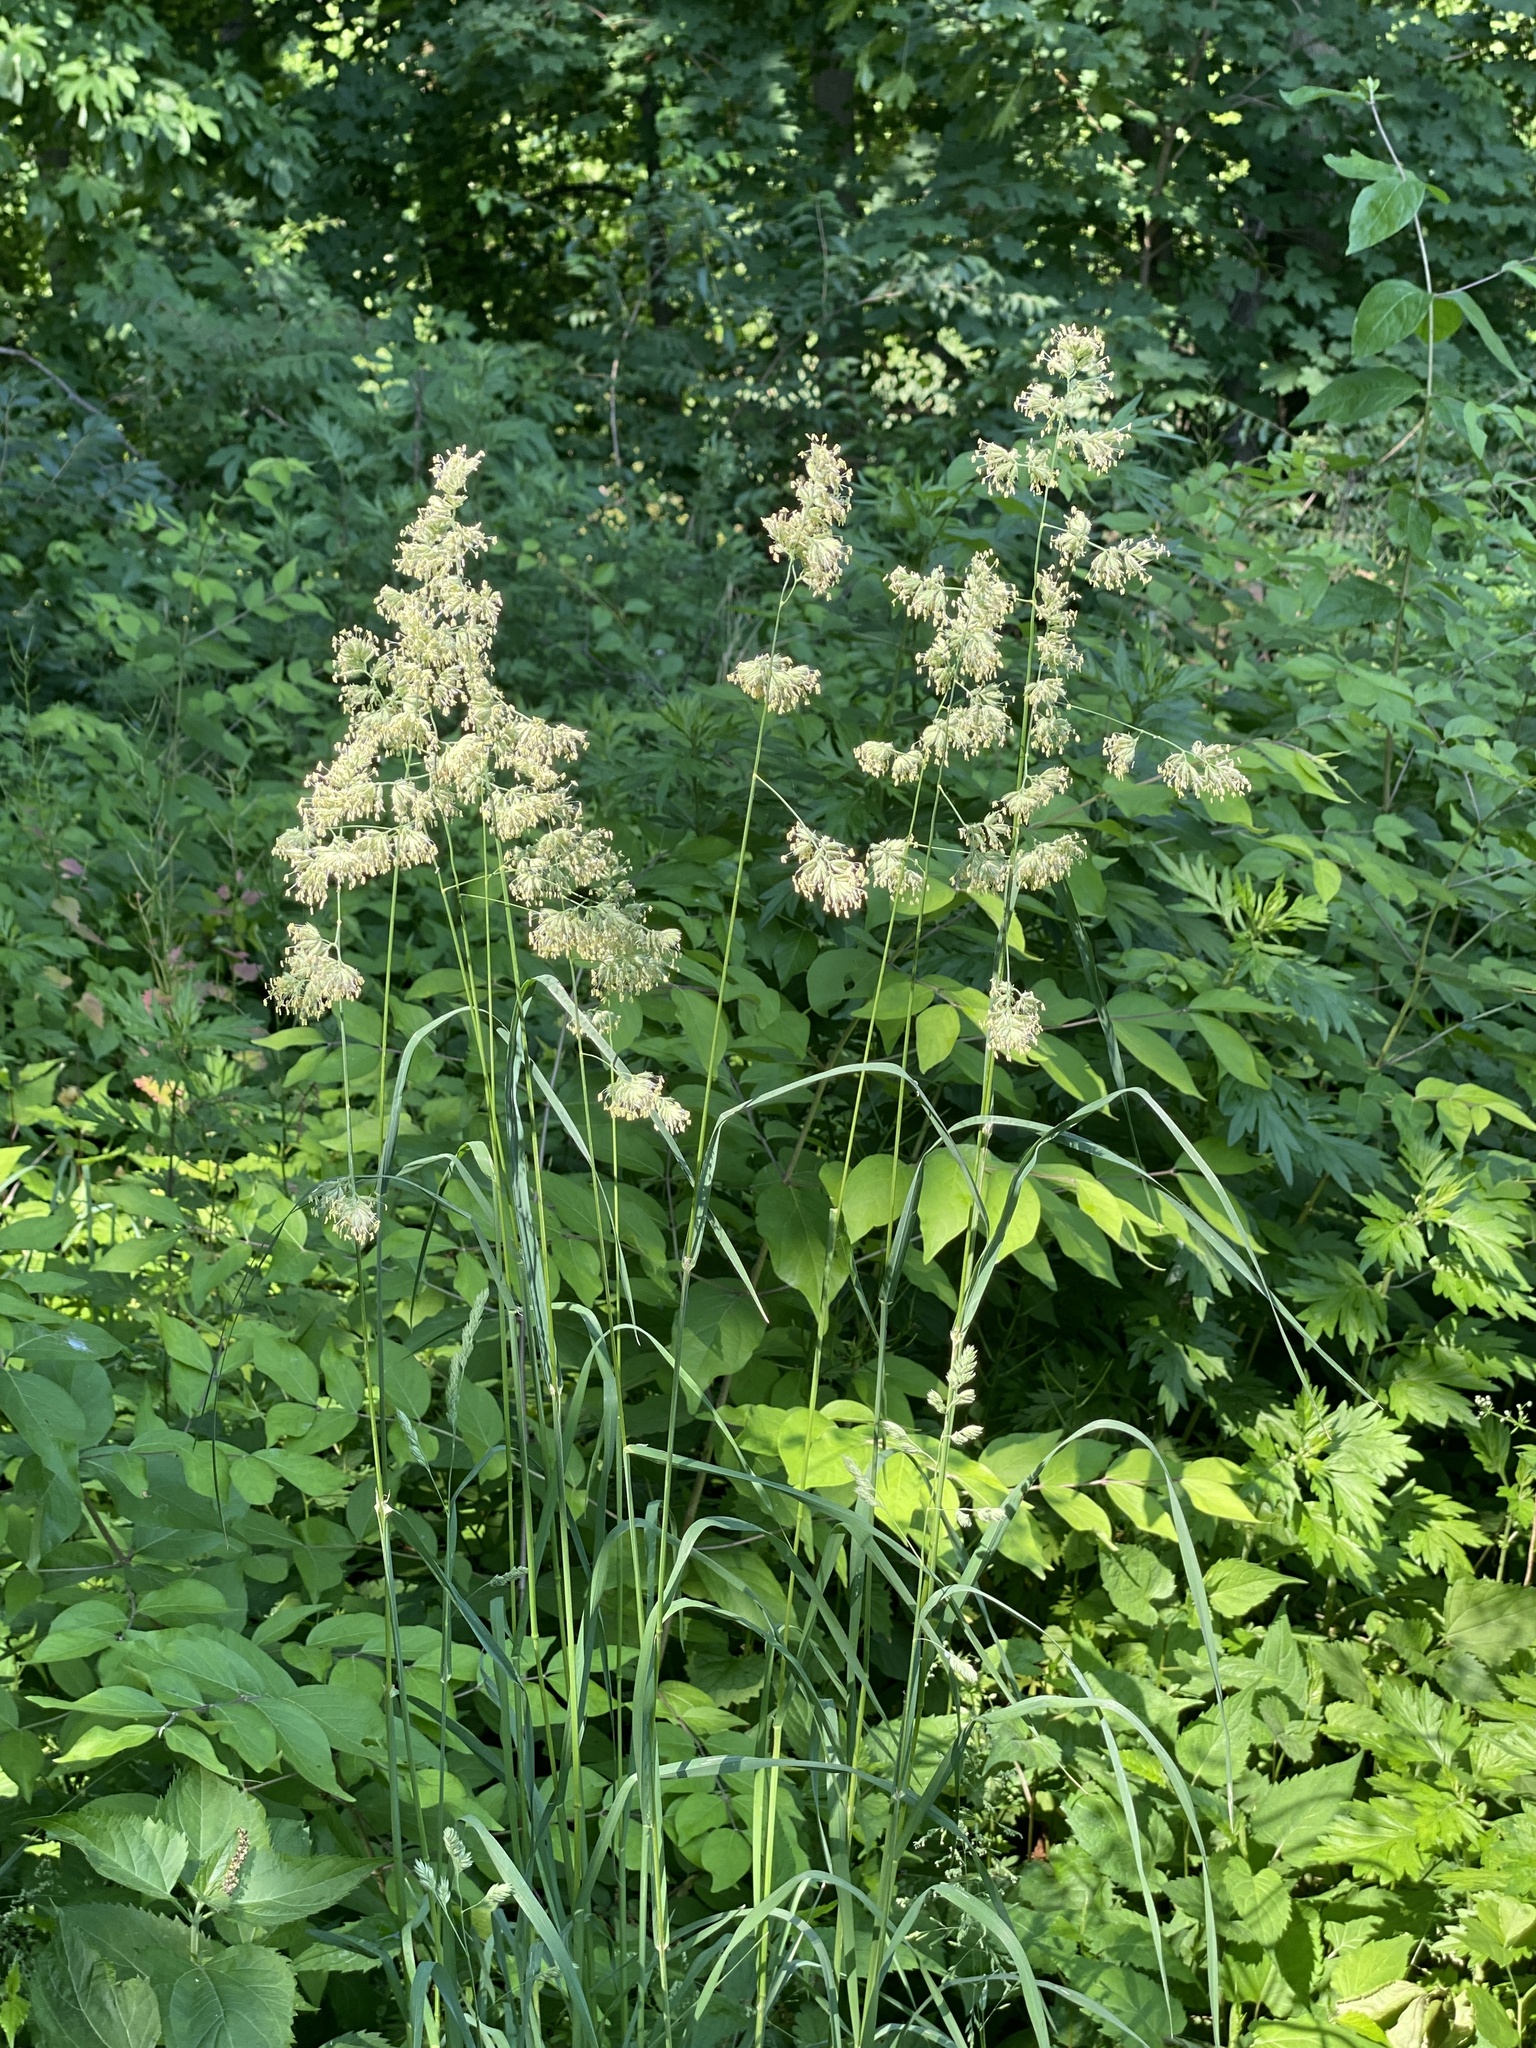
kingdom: Plantae
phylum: Tracheophyta
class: Liliopsida
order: Poales
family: Poaceae
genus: Dactylis
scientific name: Dactylis glomerata
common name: Orchardgrass
